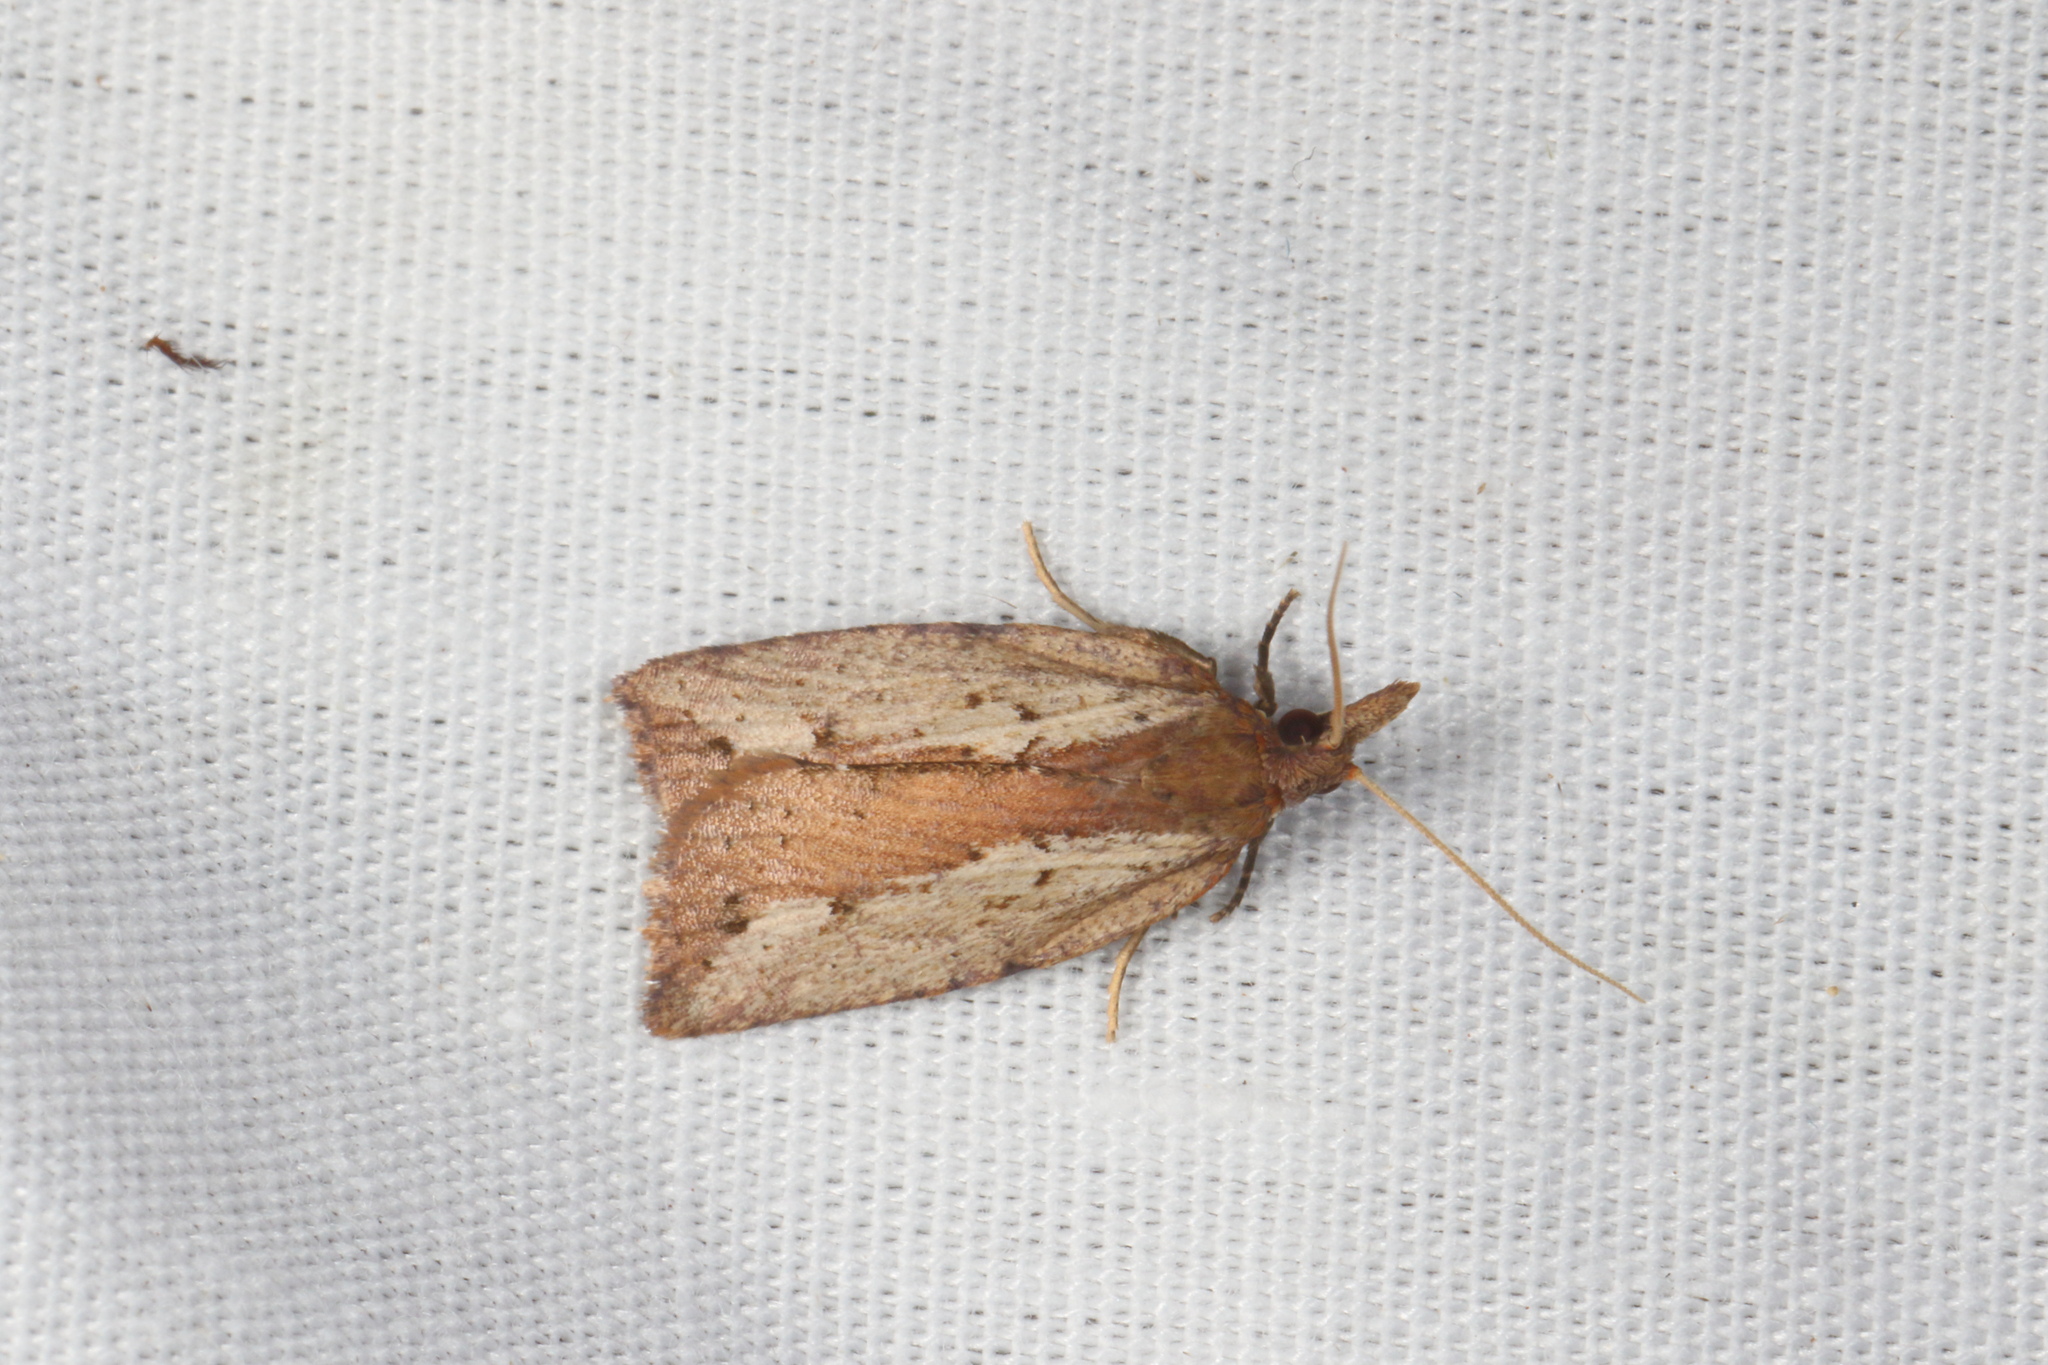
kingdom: Animalia
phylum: Arthropoda
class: Insecta
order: Lepidoptera
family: Tortricidae
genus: Planotortrix
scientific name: Planotortrix notophaea
